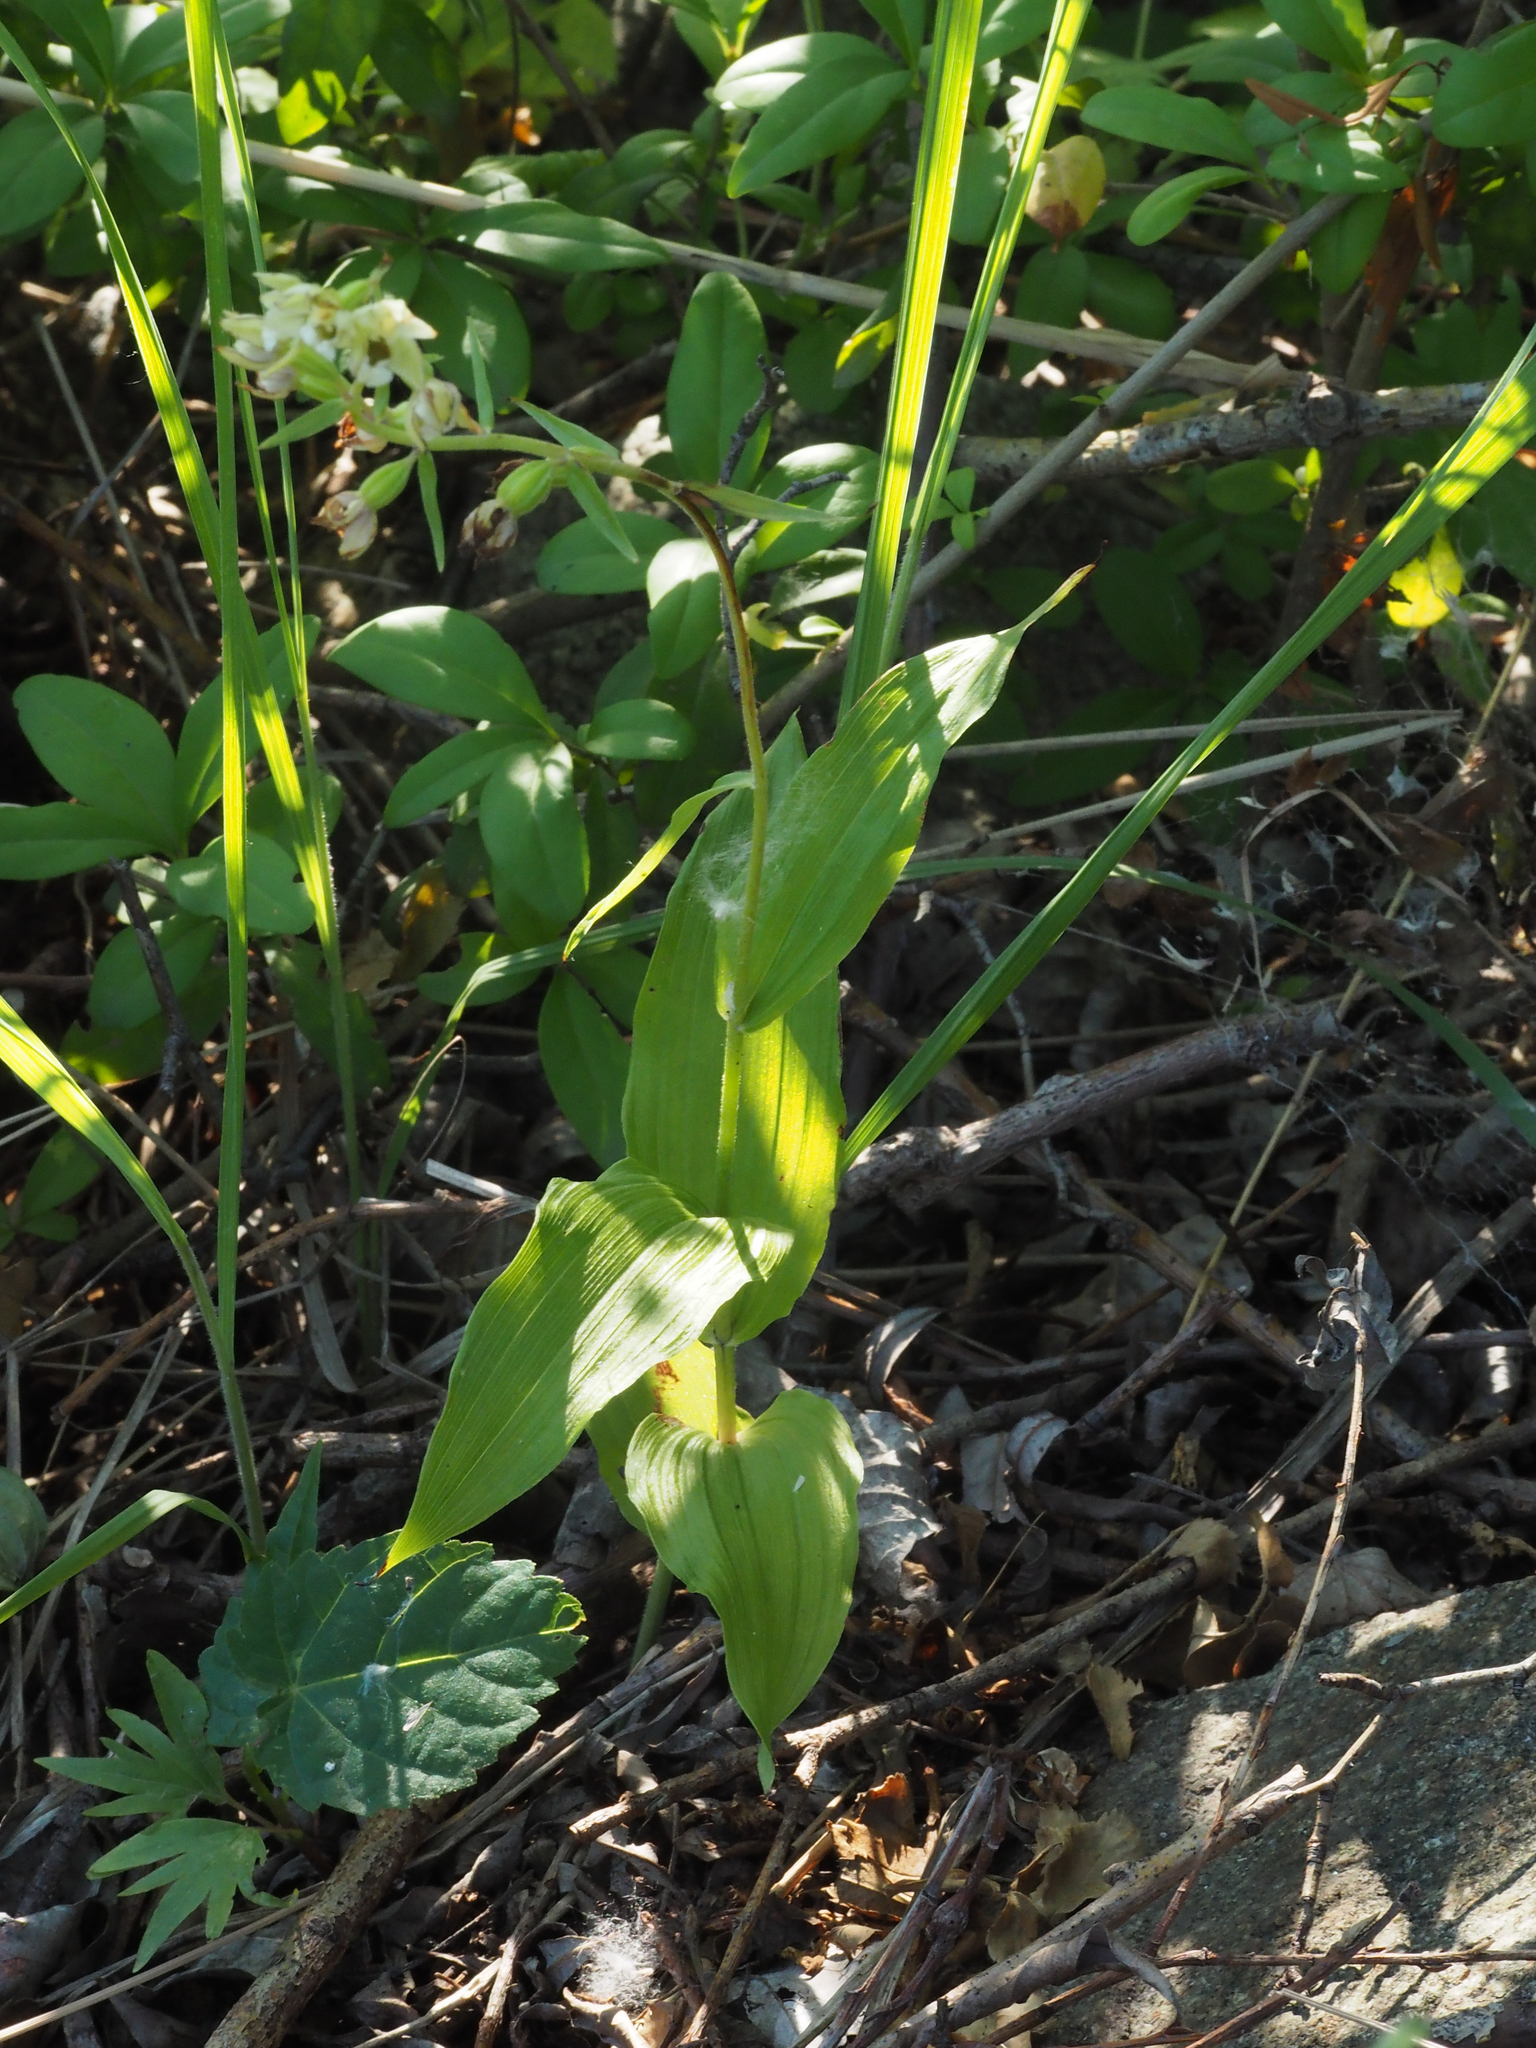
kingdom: Plantae
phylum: Tracheophyta
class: Liliopsida
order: Asparagales
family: Orchidaceae
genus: Epipactis
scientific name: Epipactis bugacensis
